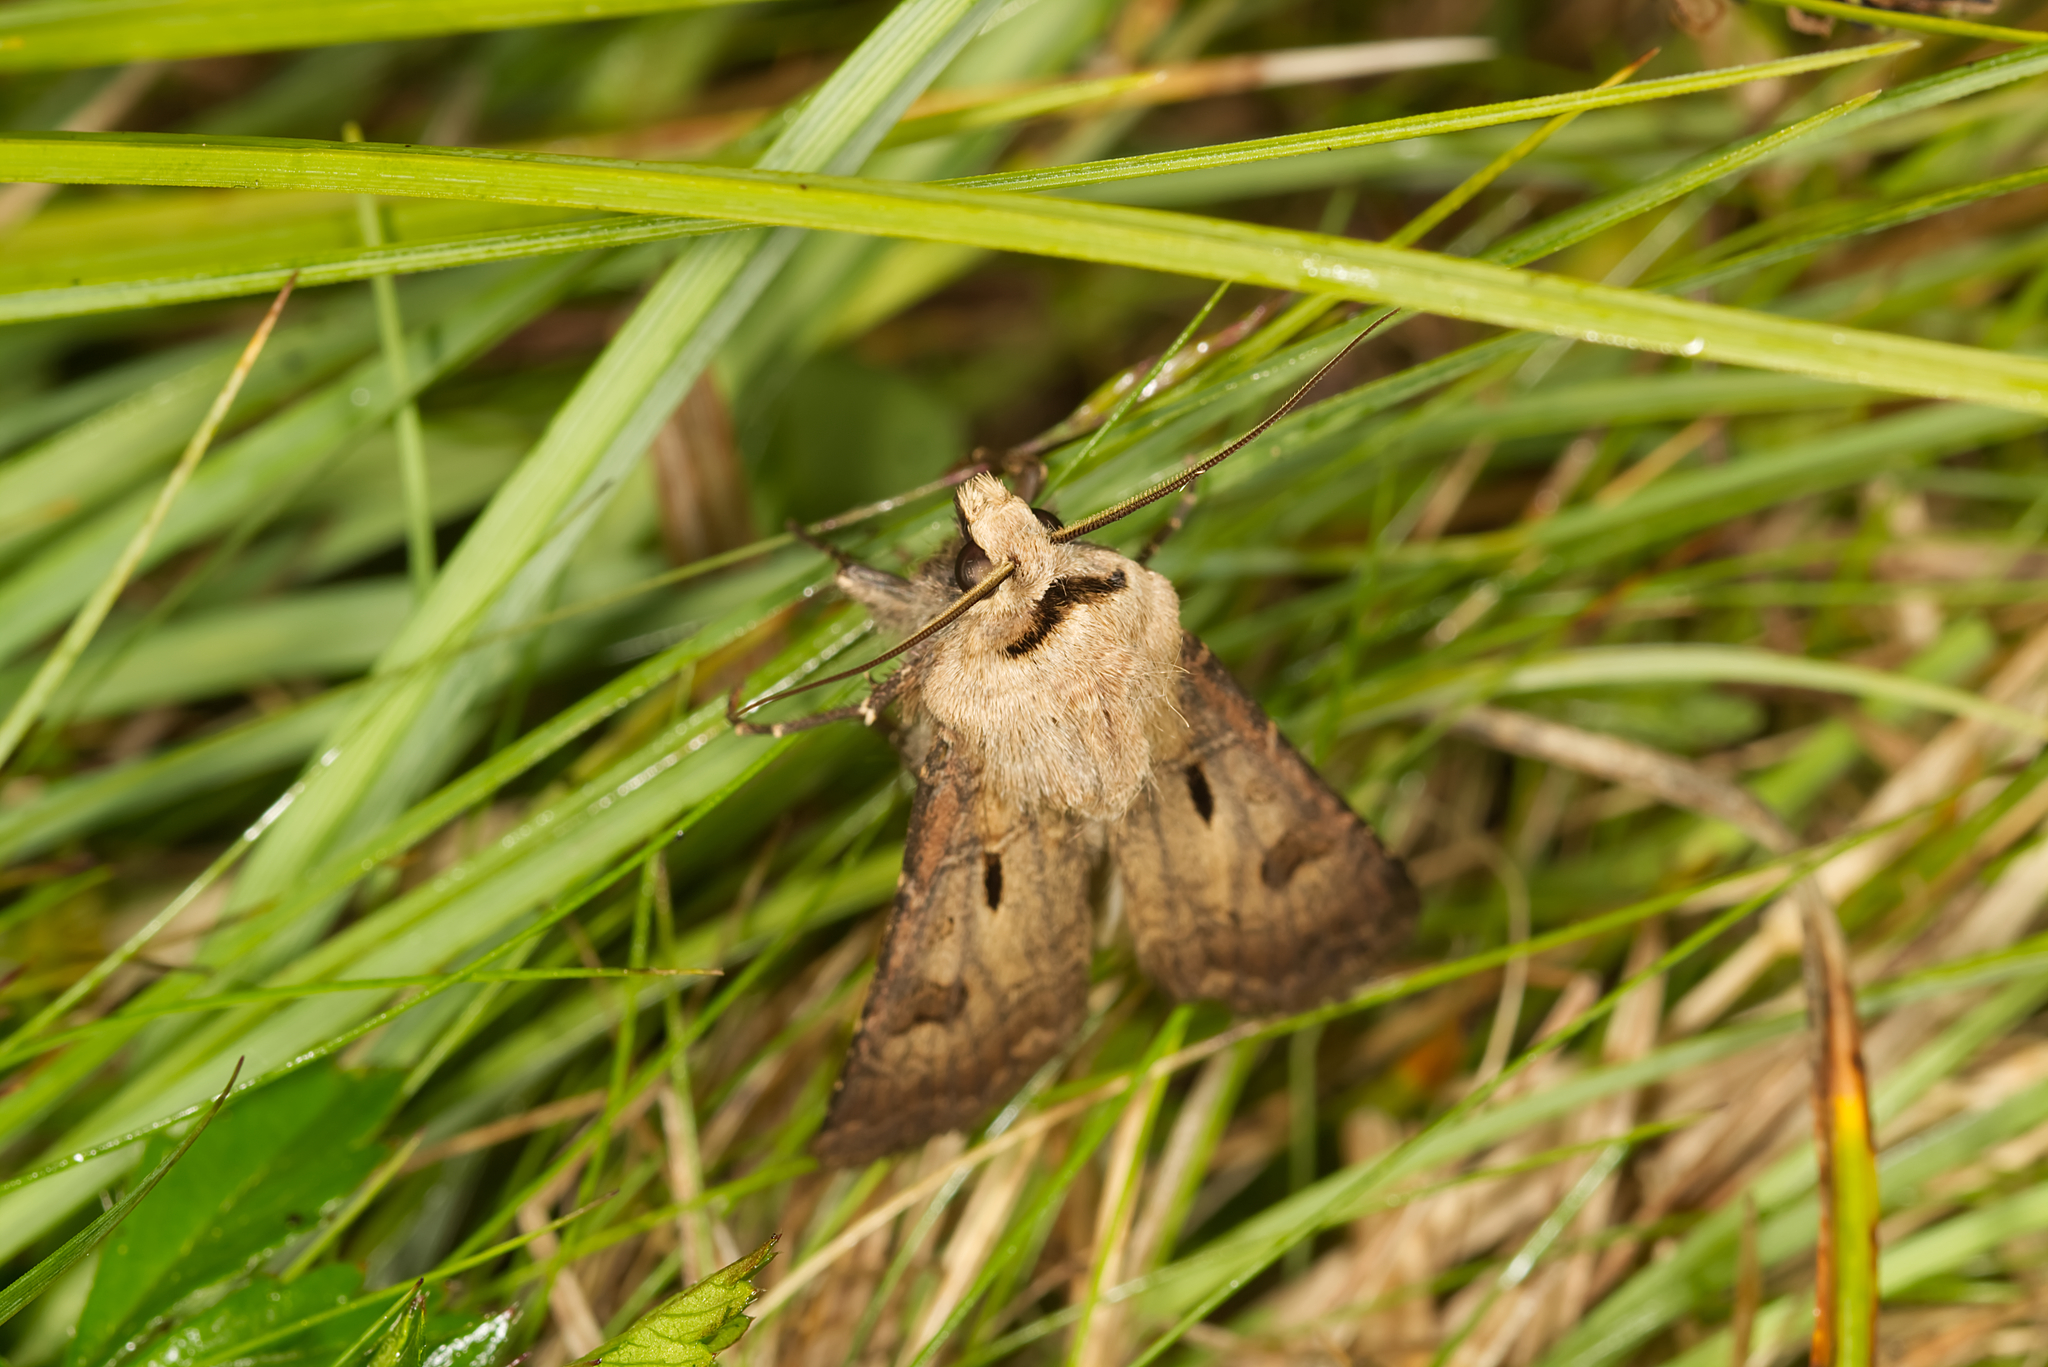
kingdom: Animalia
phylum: Arthropoda
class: Insecta
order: Lepidoptera
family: Noctuidae
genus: Agrotis
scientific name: Agrotis exclamationis
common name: Heart and dart
